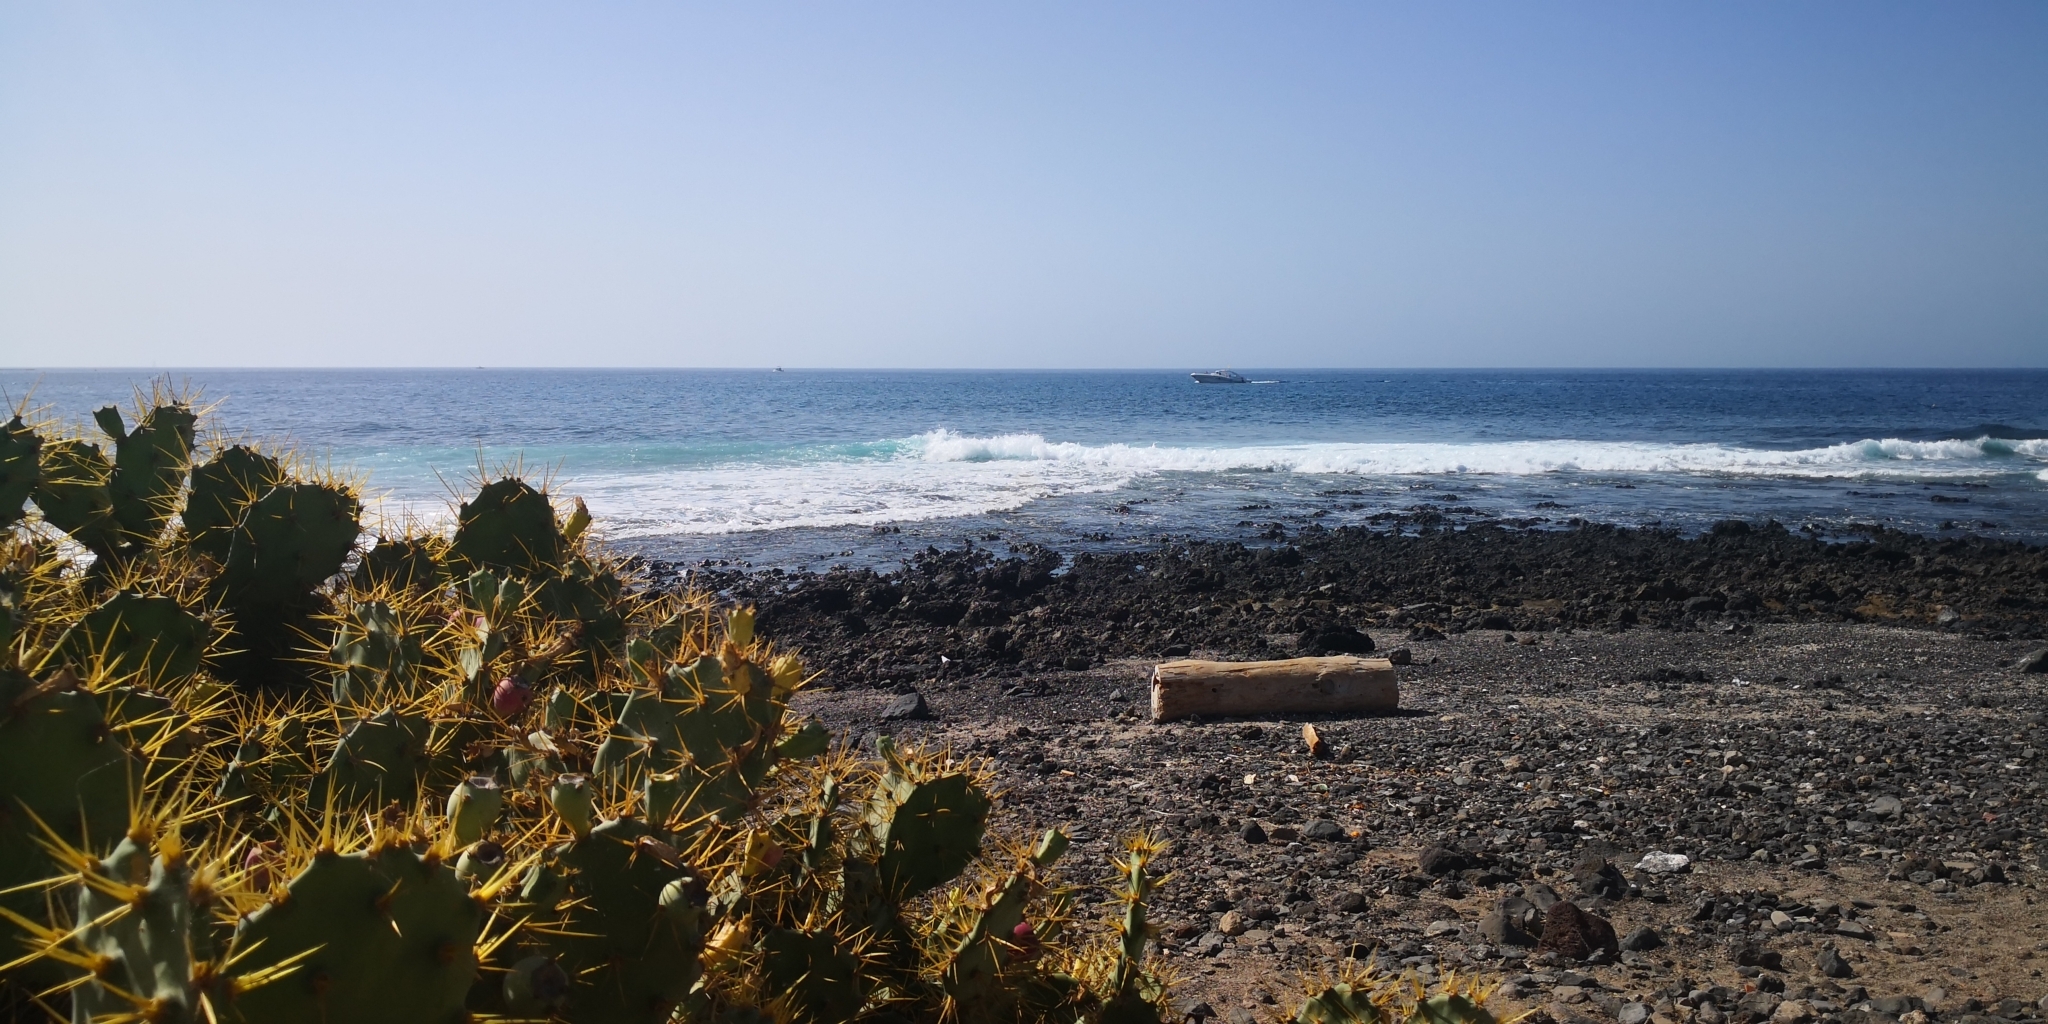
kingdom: Plantae
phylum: Tracheophyta
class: Magnoliopsida
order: Caryophyllales
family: Cactaceae
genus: Opuntia
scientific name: Opuntia stricta
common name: Erect pricklypear
